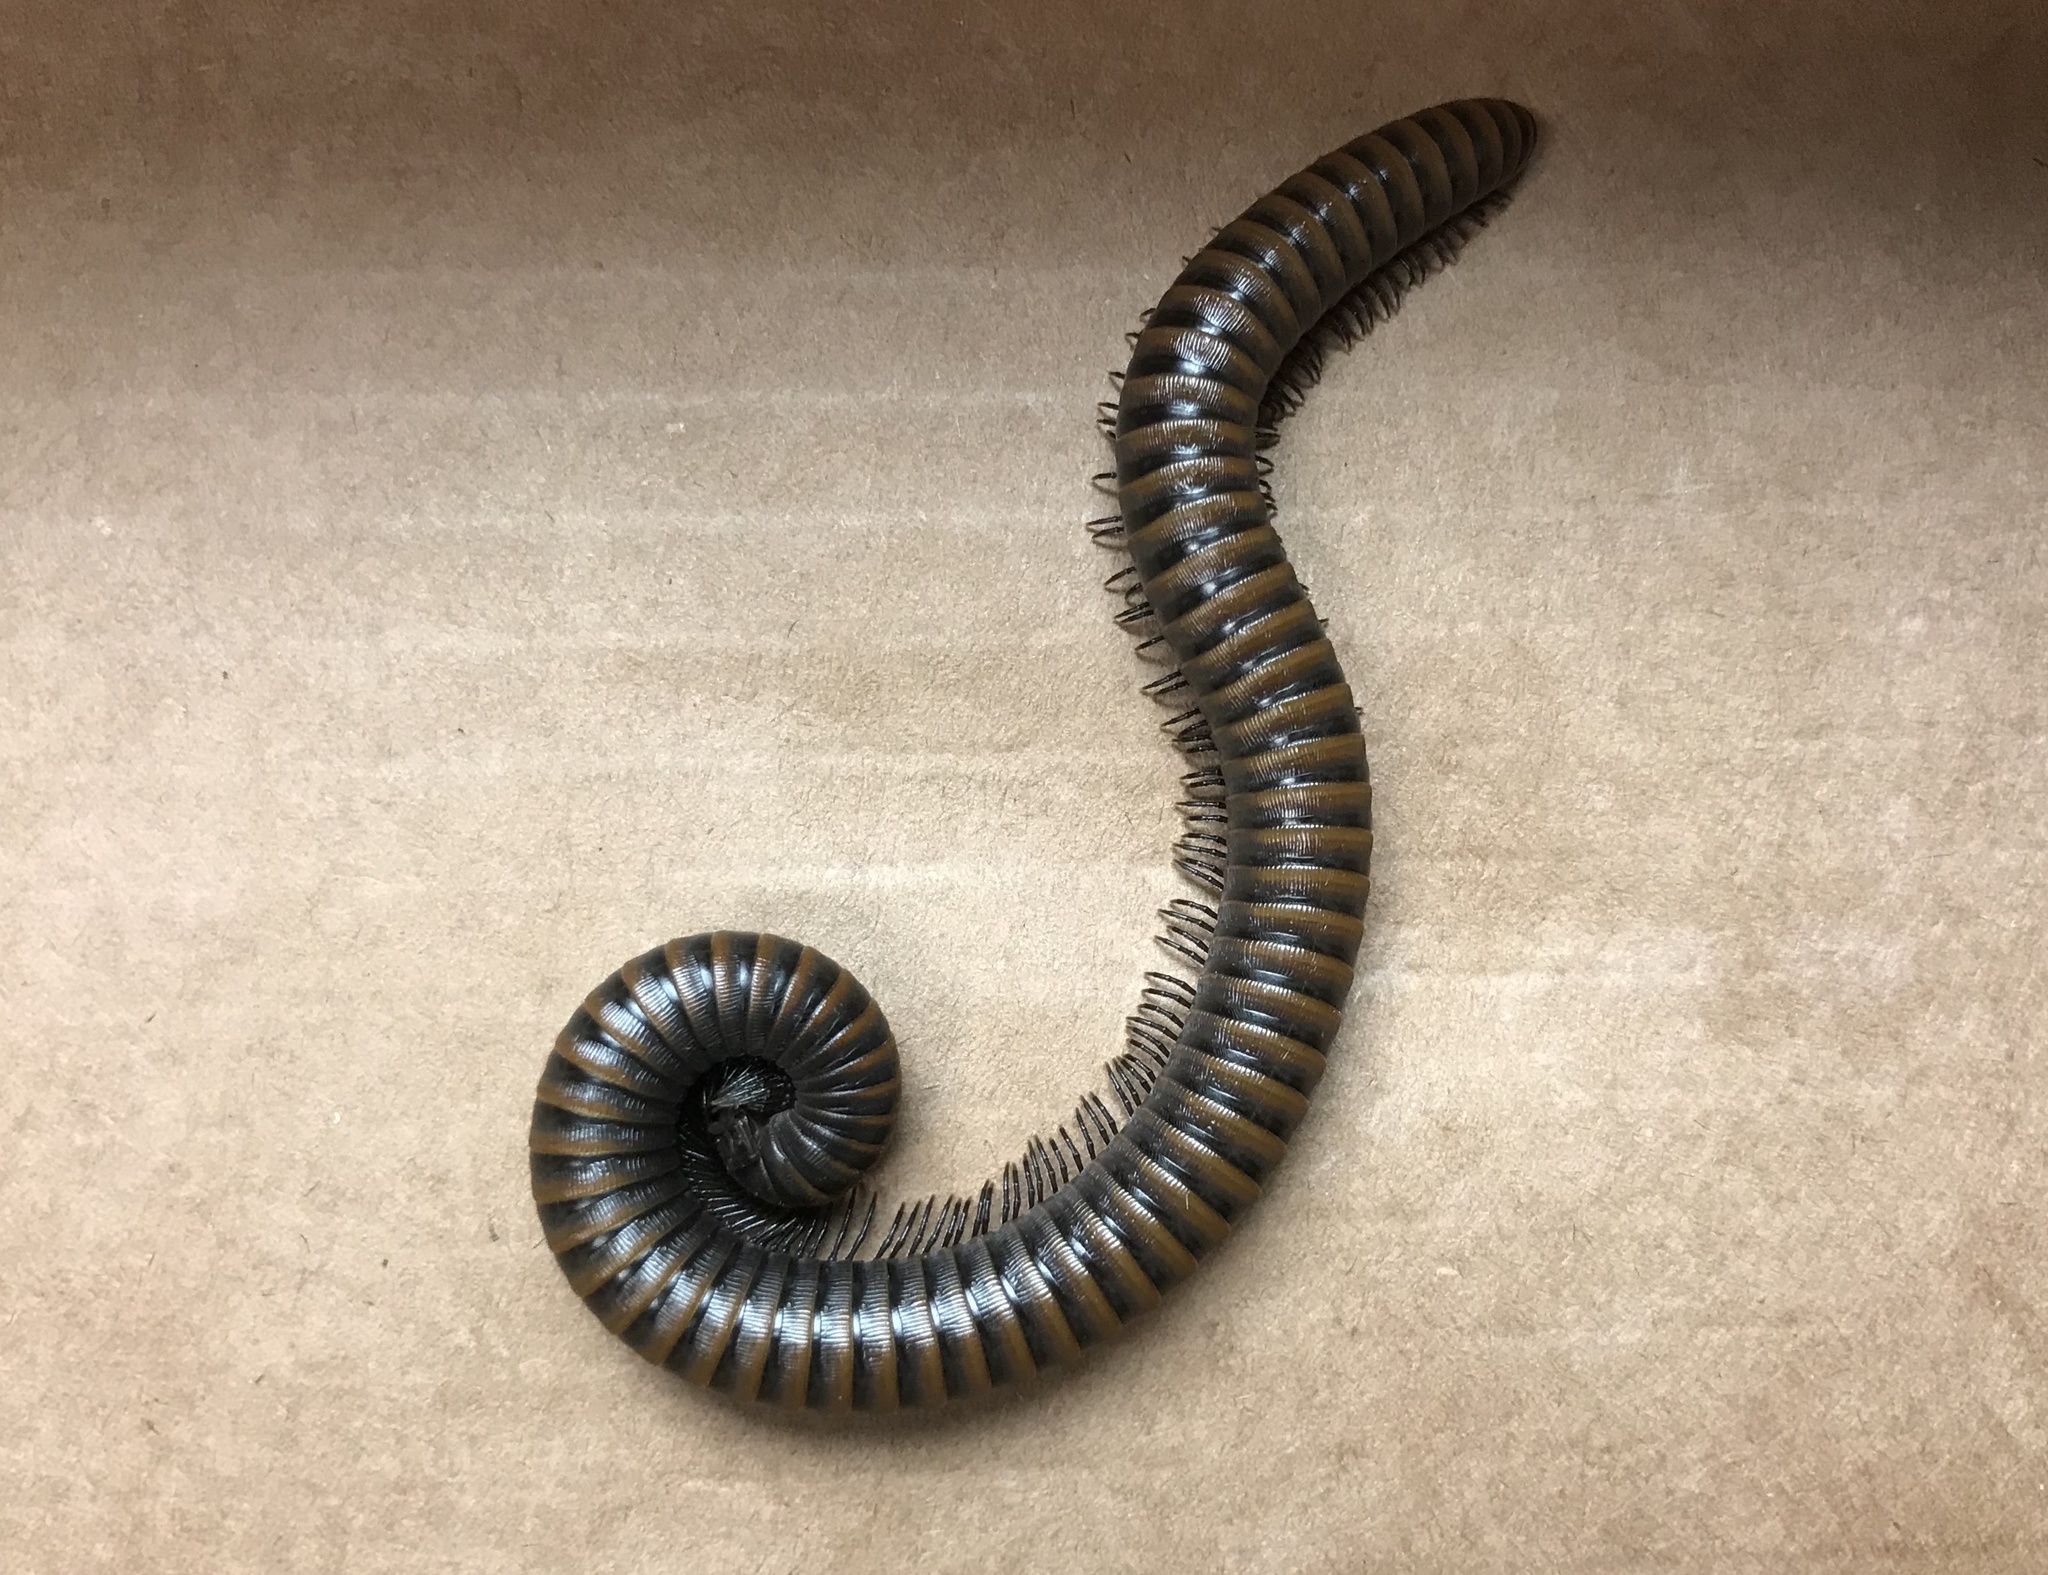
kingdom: Animalia
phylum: Arthropoda
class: Diplopoda
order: Julida
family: Paeromopodidae
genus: Paeromopus
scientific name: Paeromopus angusticeps
